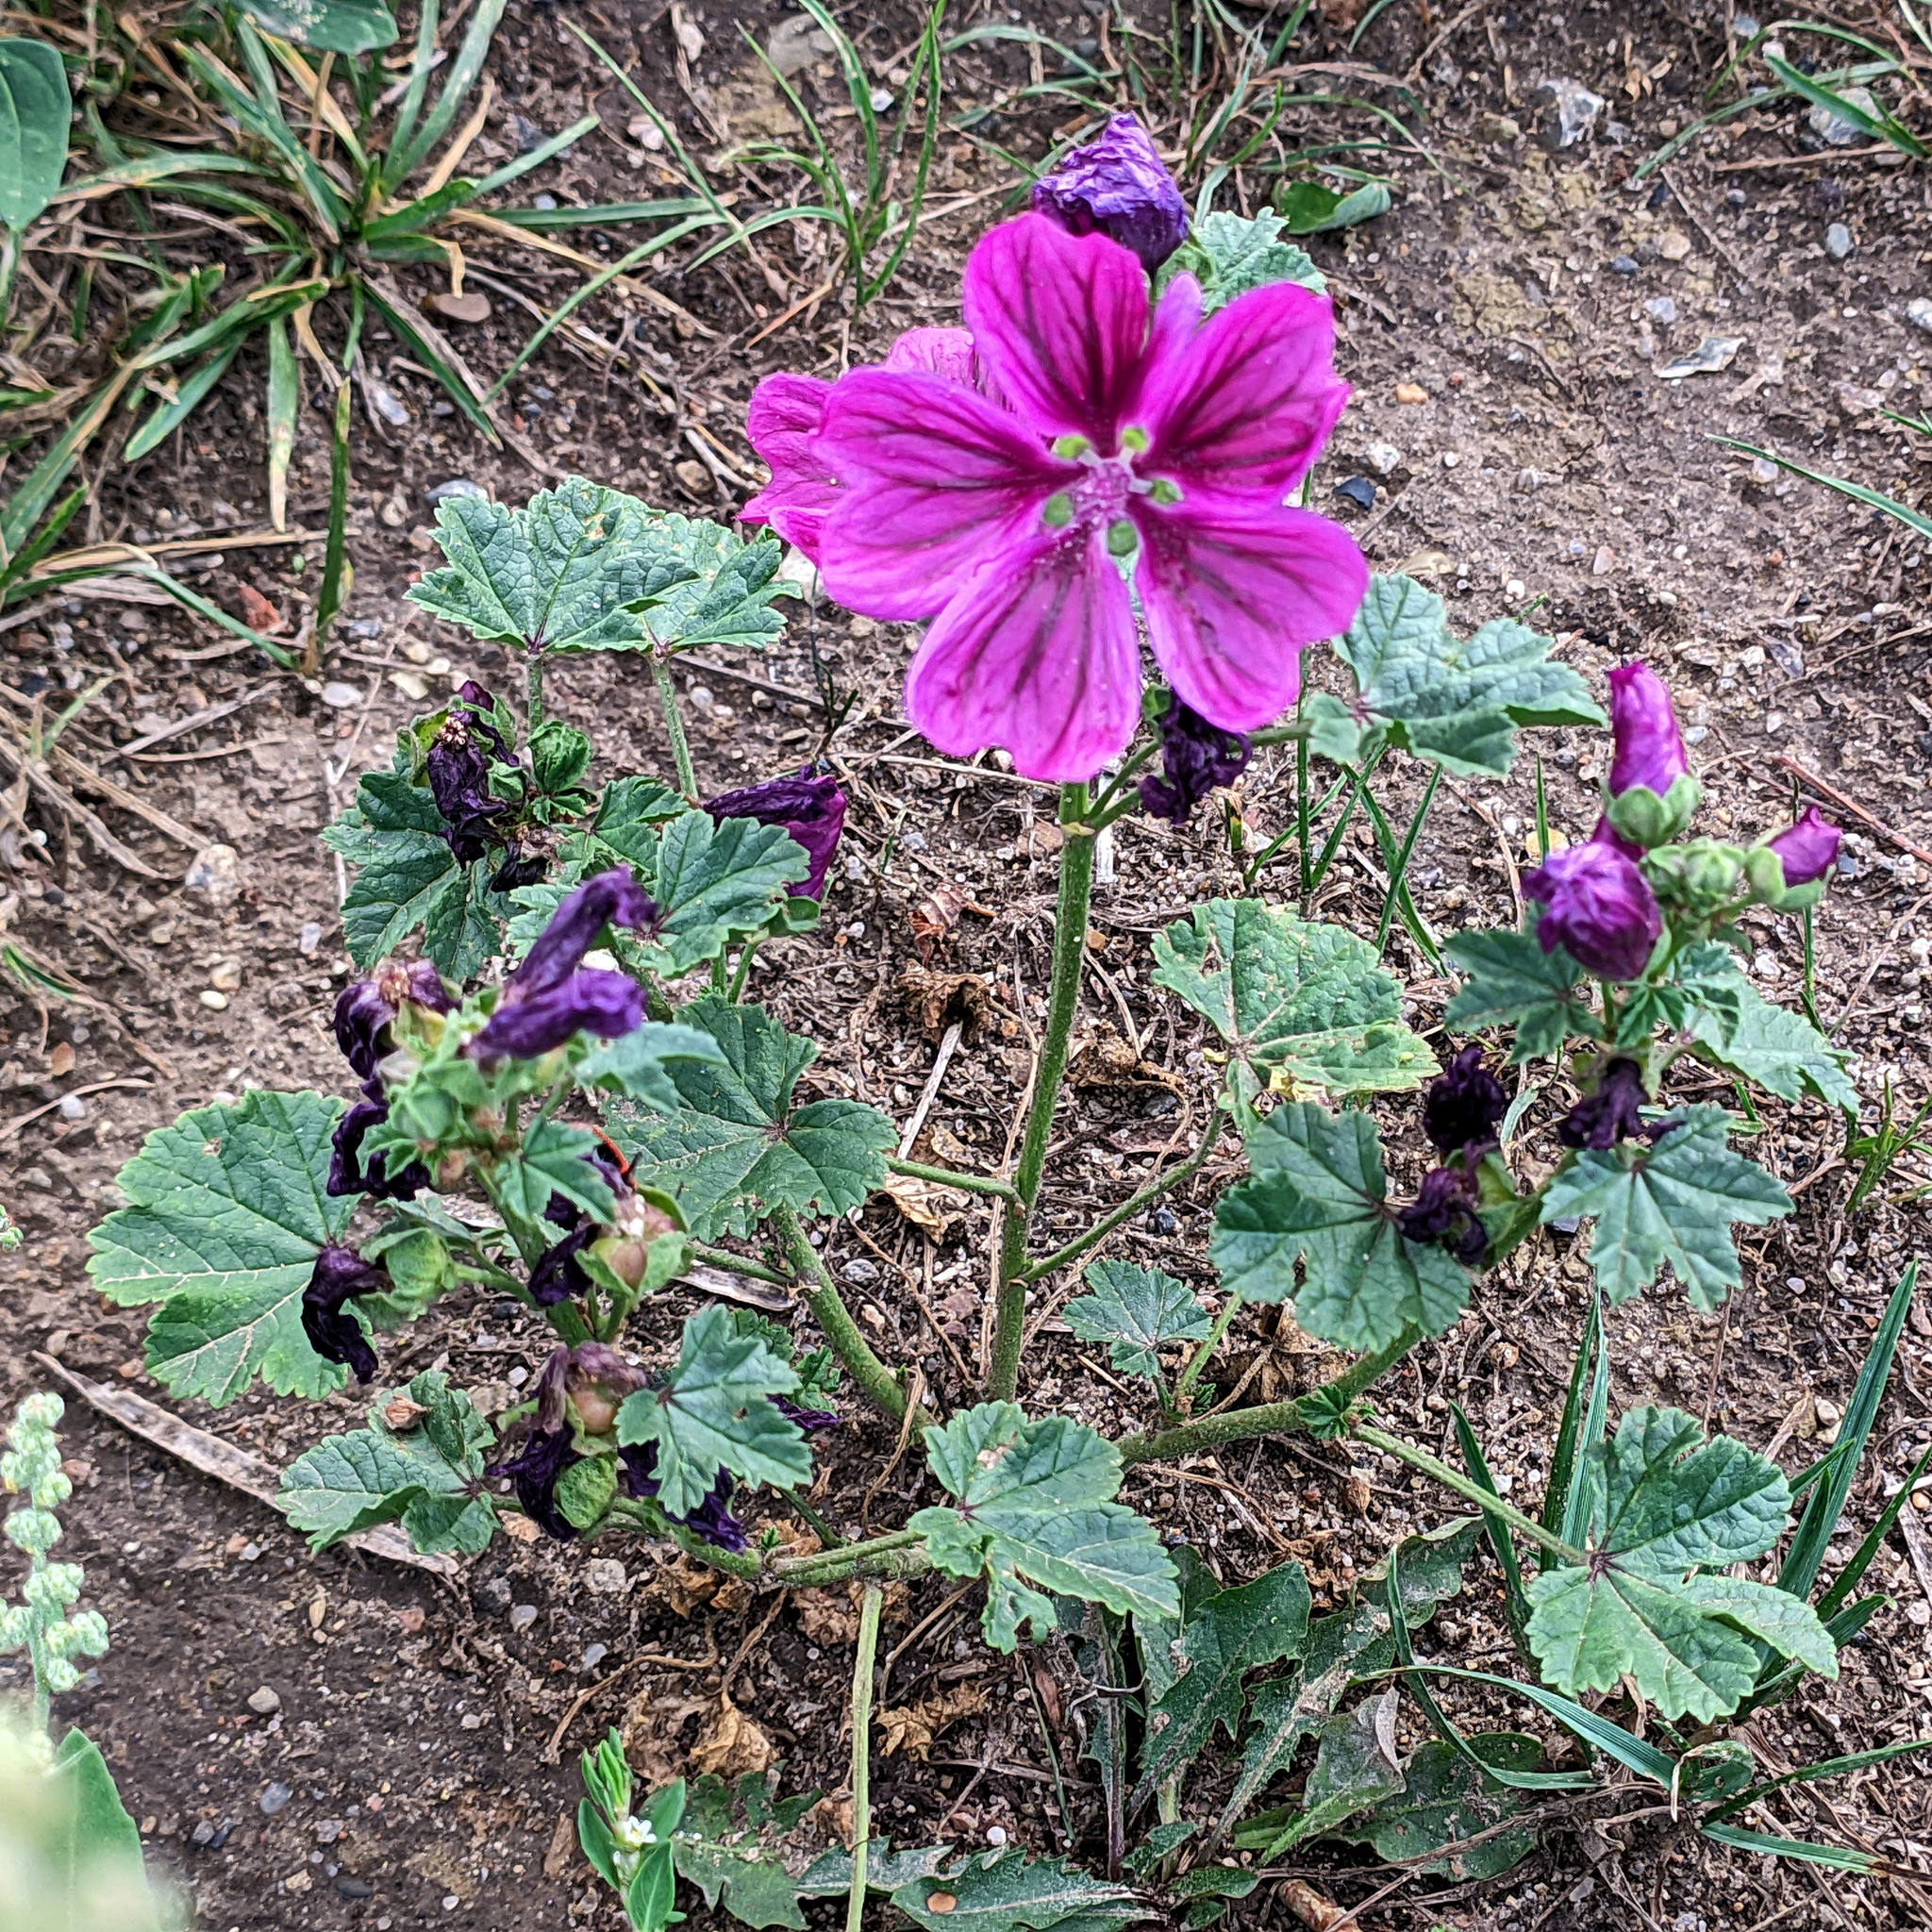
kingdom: Plantae
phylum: Tracheophyta
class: Magnoliopsida
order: Malvales
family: Malvaceae
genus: Malva
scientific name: Malva sylvestris
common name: Common mallow
